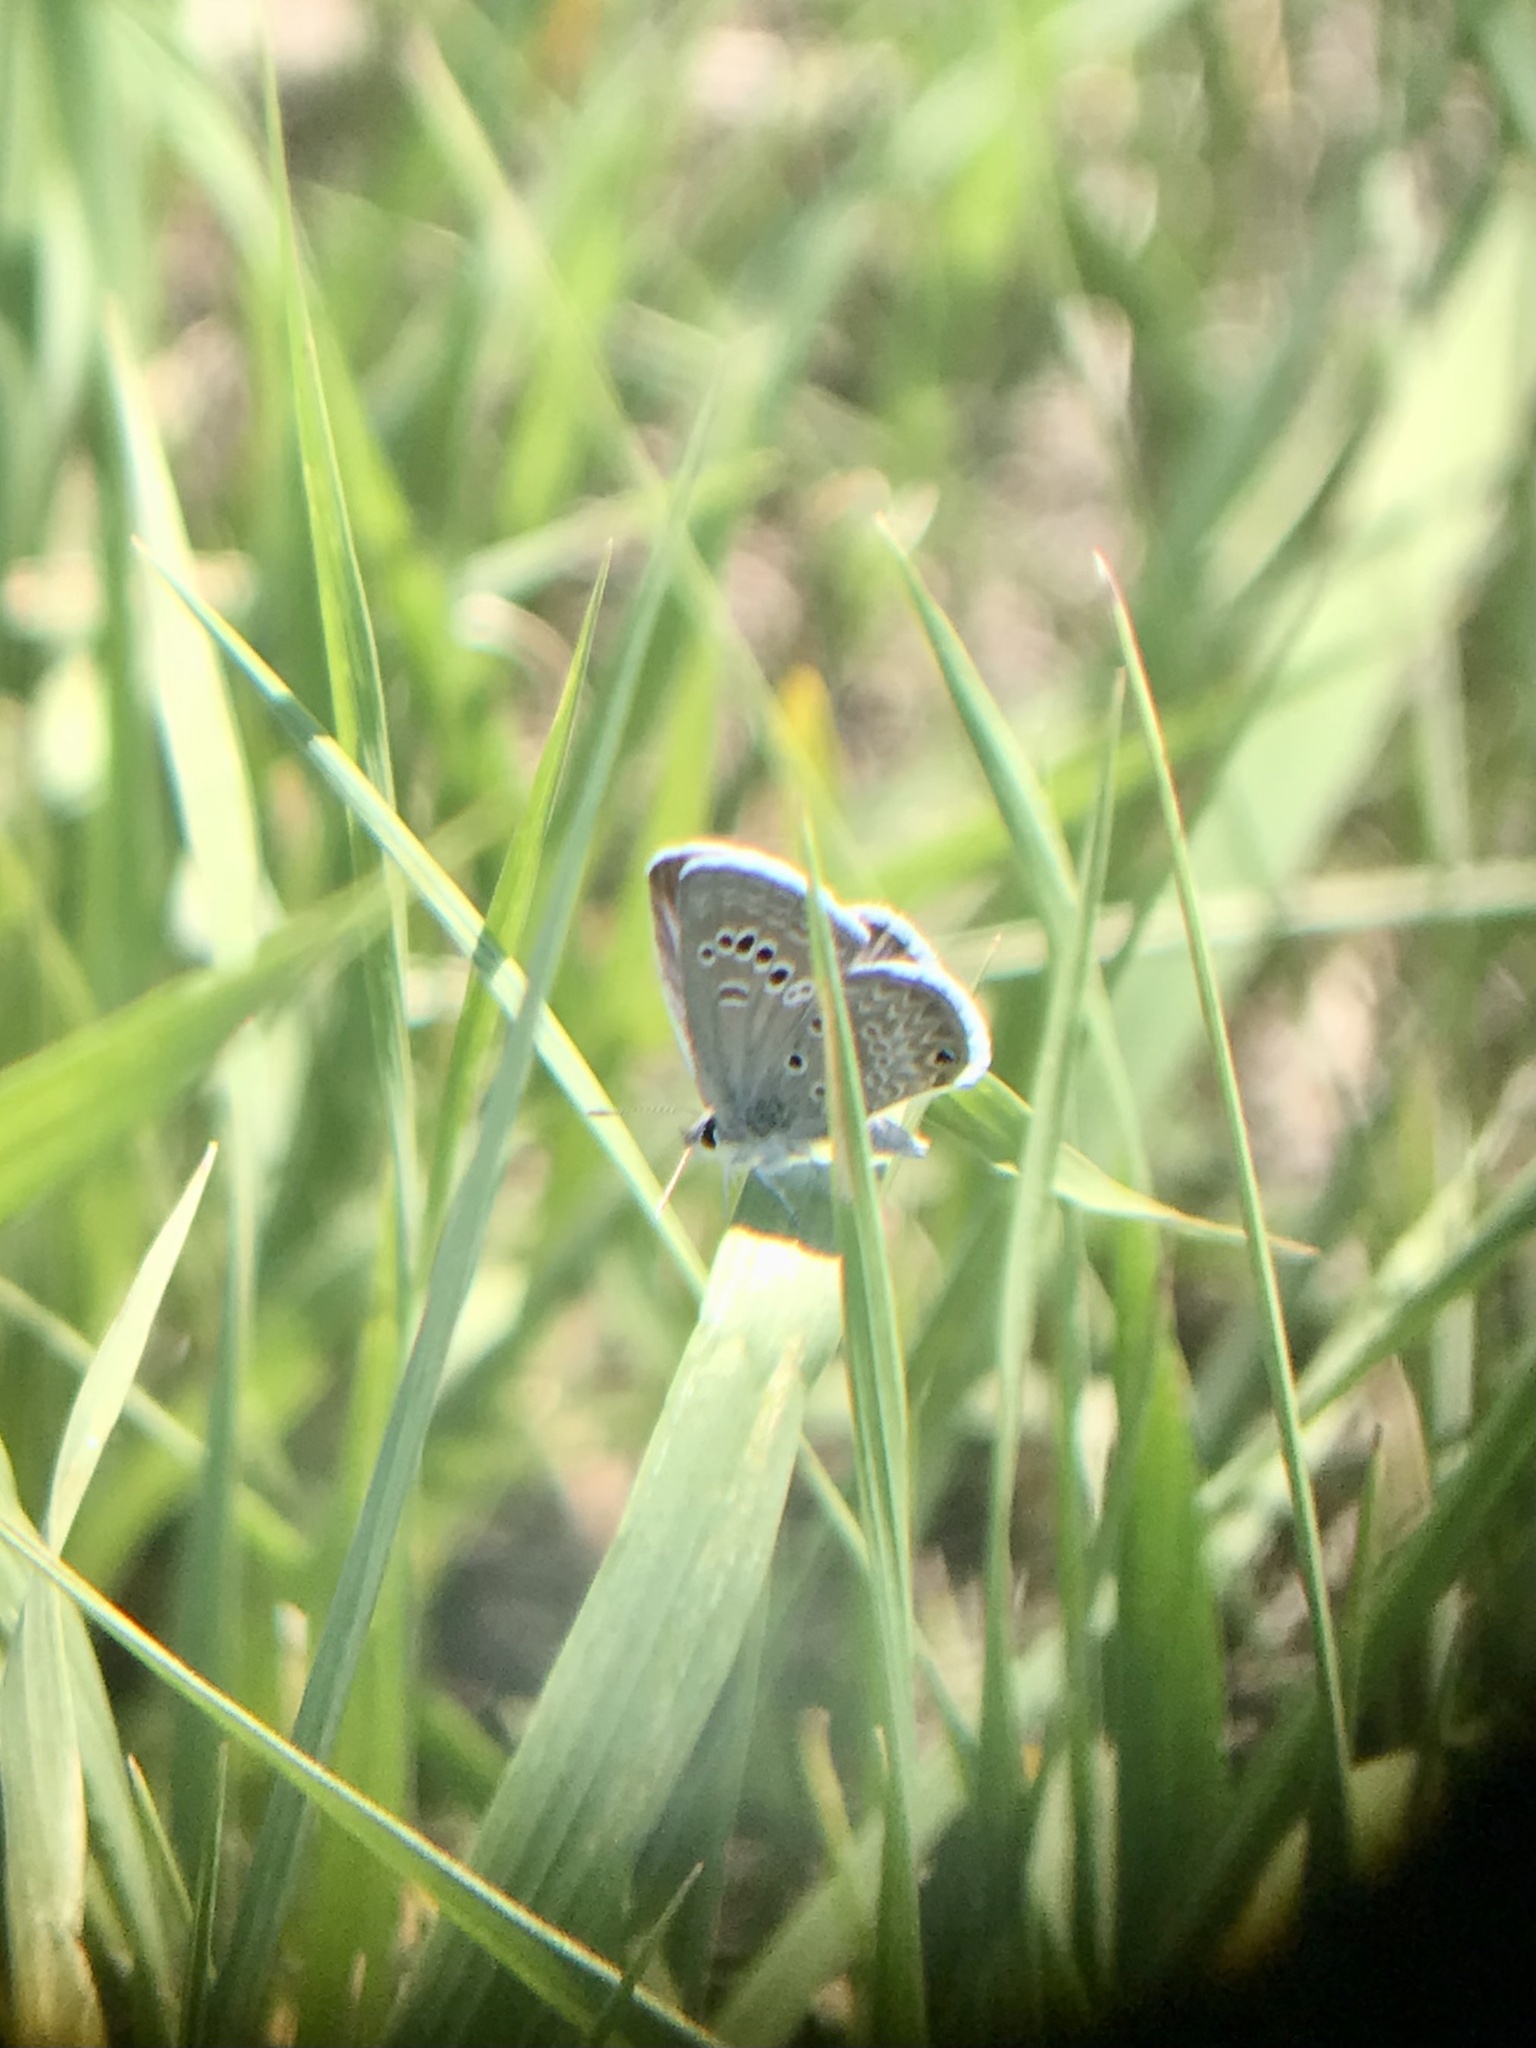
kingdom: Animalia
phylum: Arthropoda
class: Insecta
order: Lepidoptera
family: Lycaenidae
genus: Echinargus
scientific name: Echinargus isola
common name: Reakirt's blue
